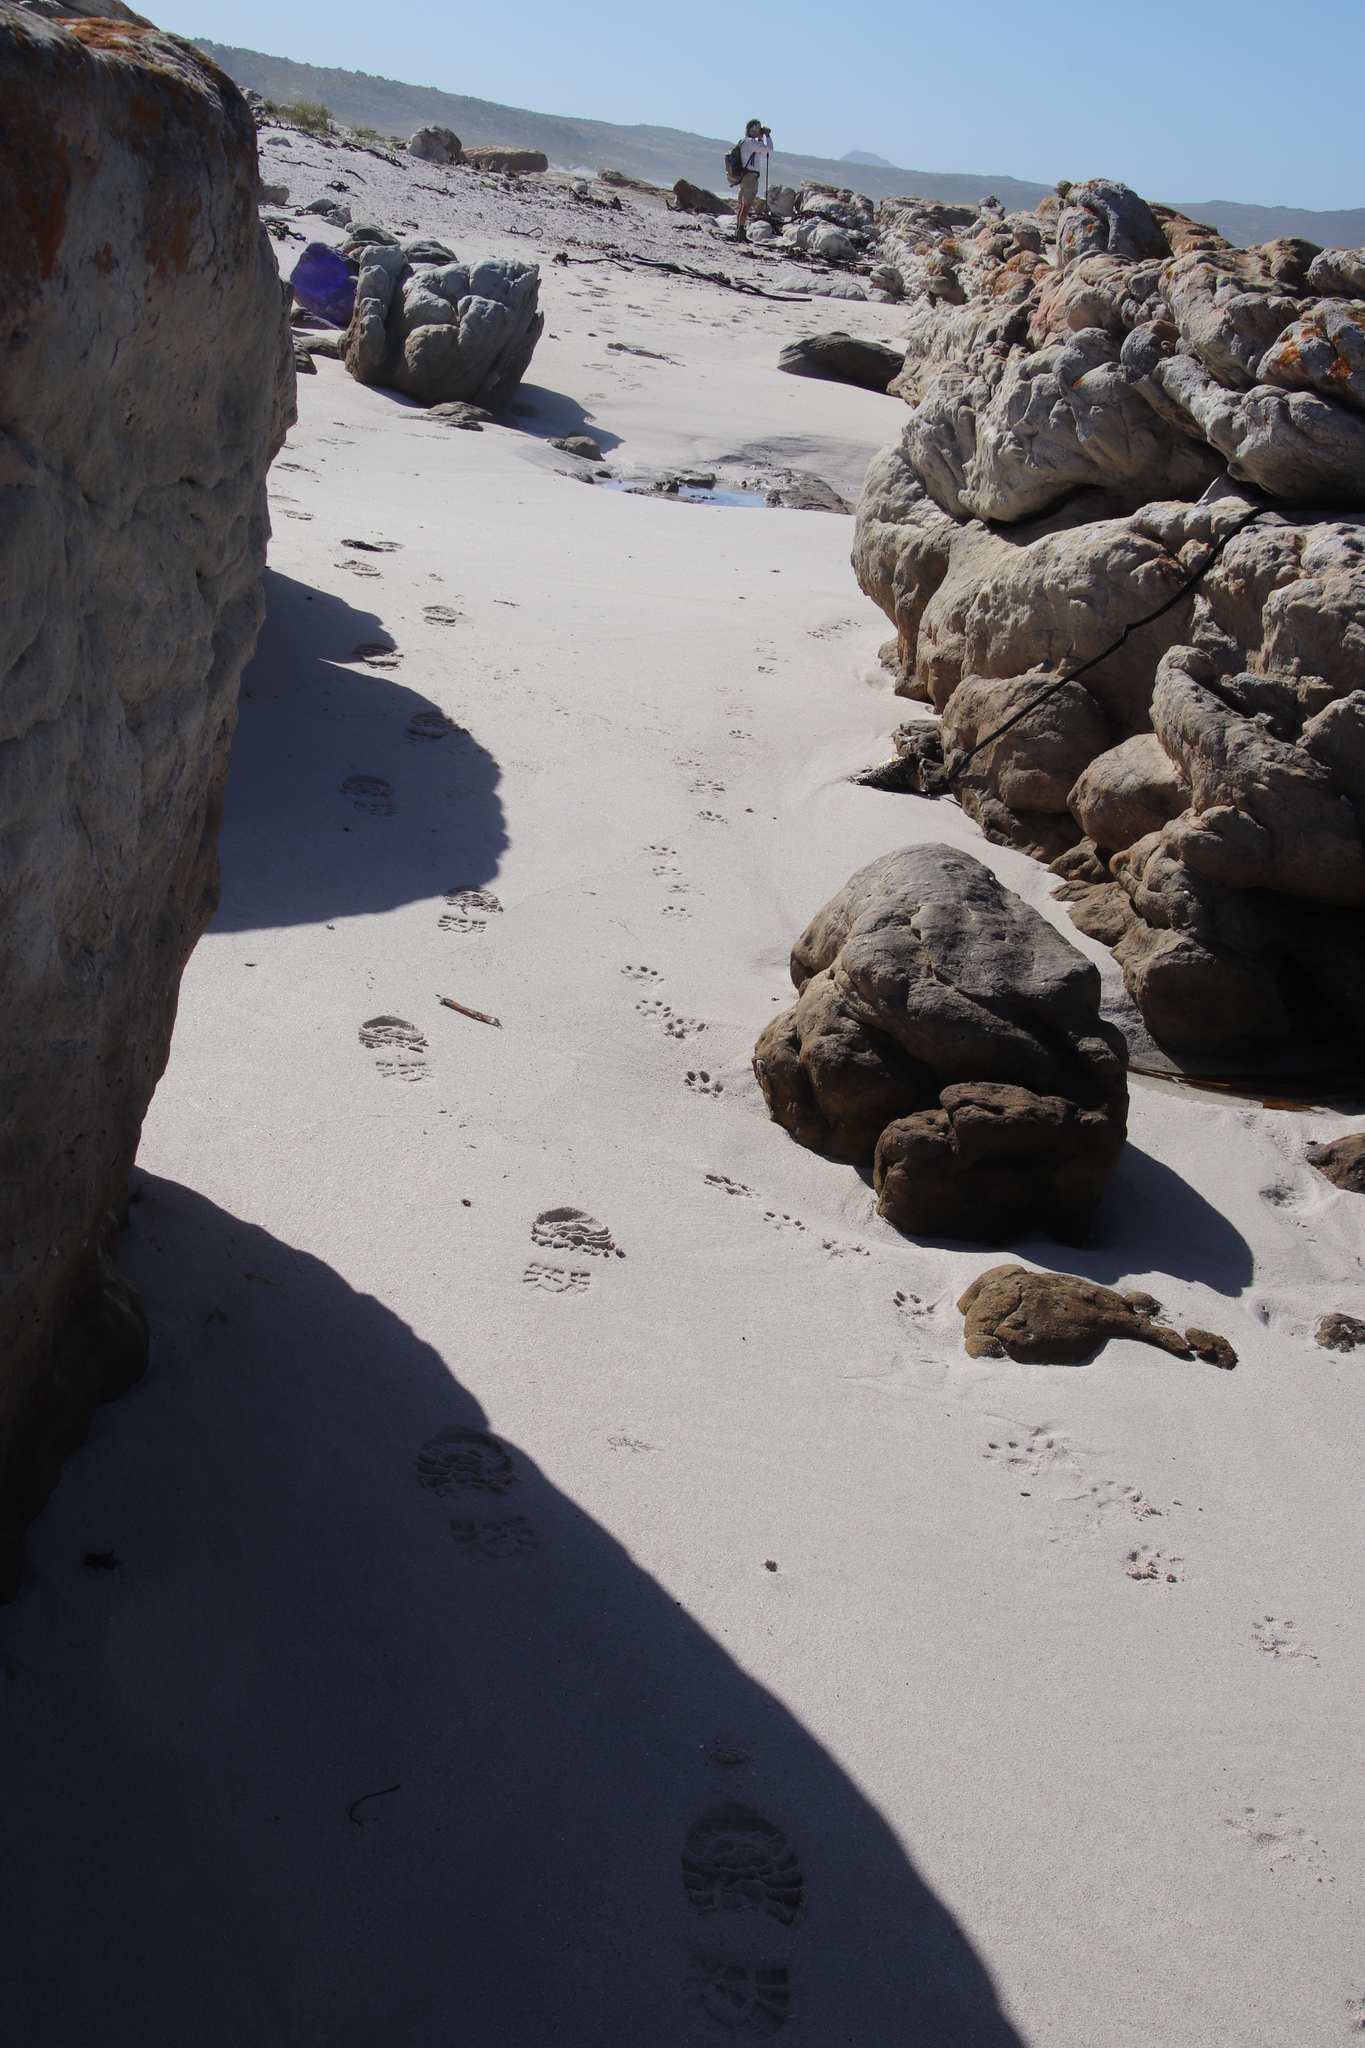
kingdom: Animalia
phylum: Chordata
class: Mammalia
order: Carnivora
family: Mustelidae
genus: Aonyx
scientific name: Aonyx capensis
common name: African clawless otter
